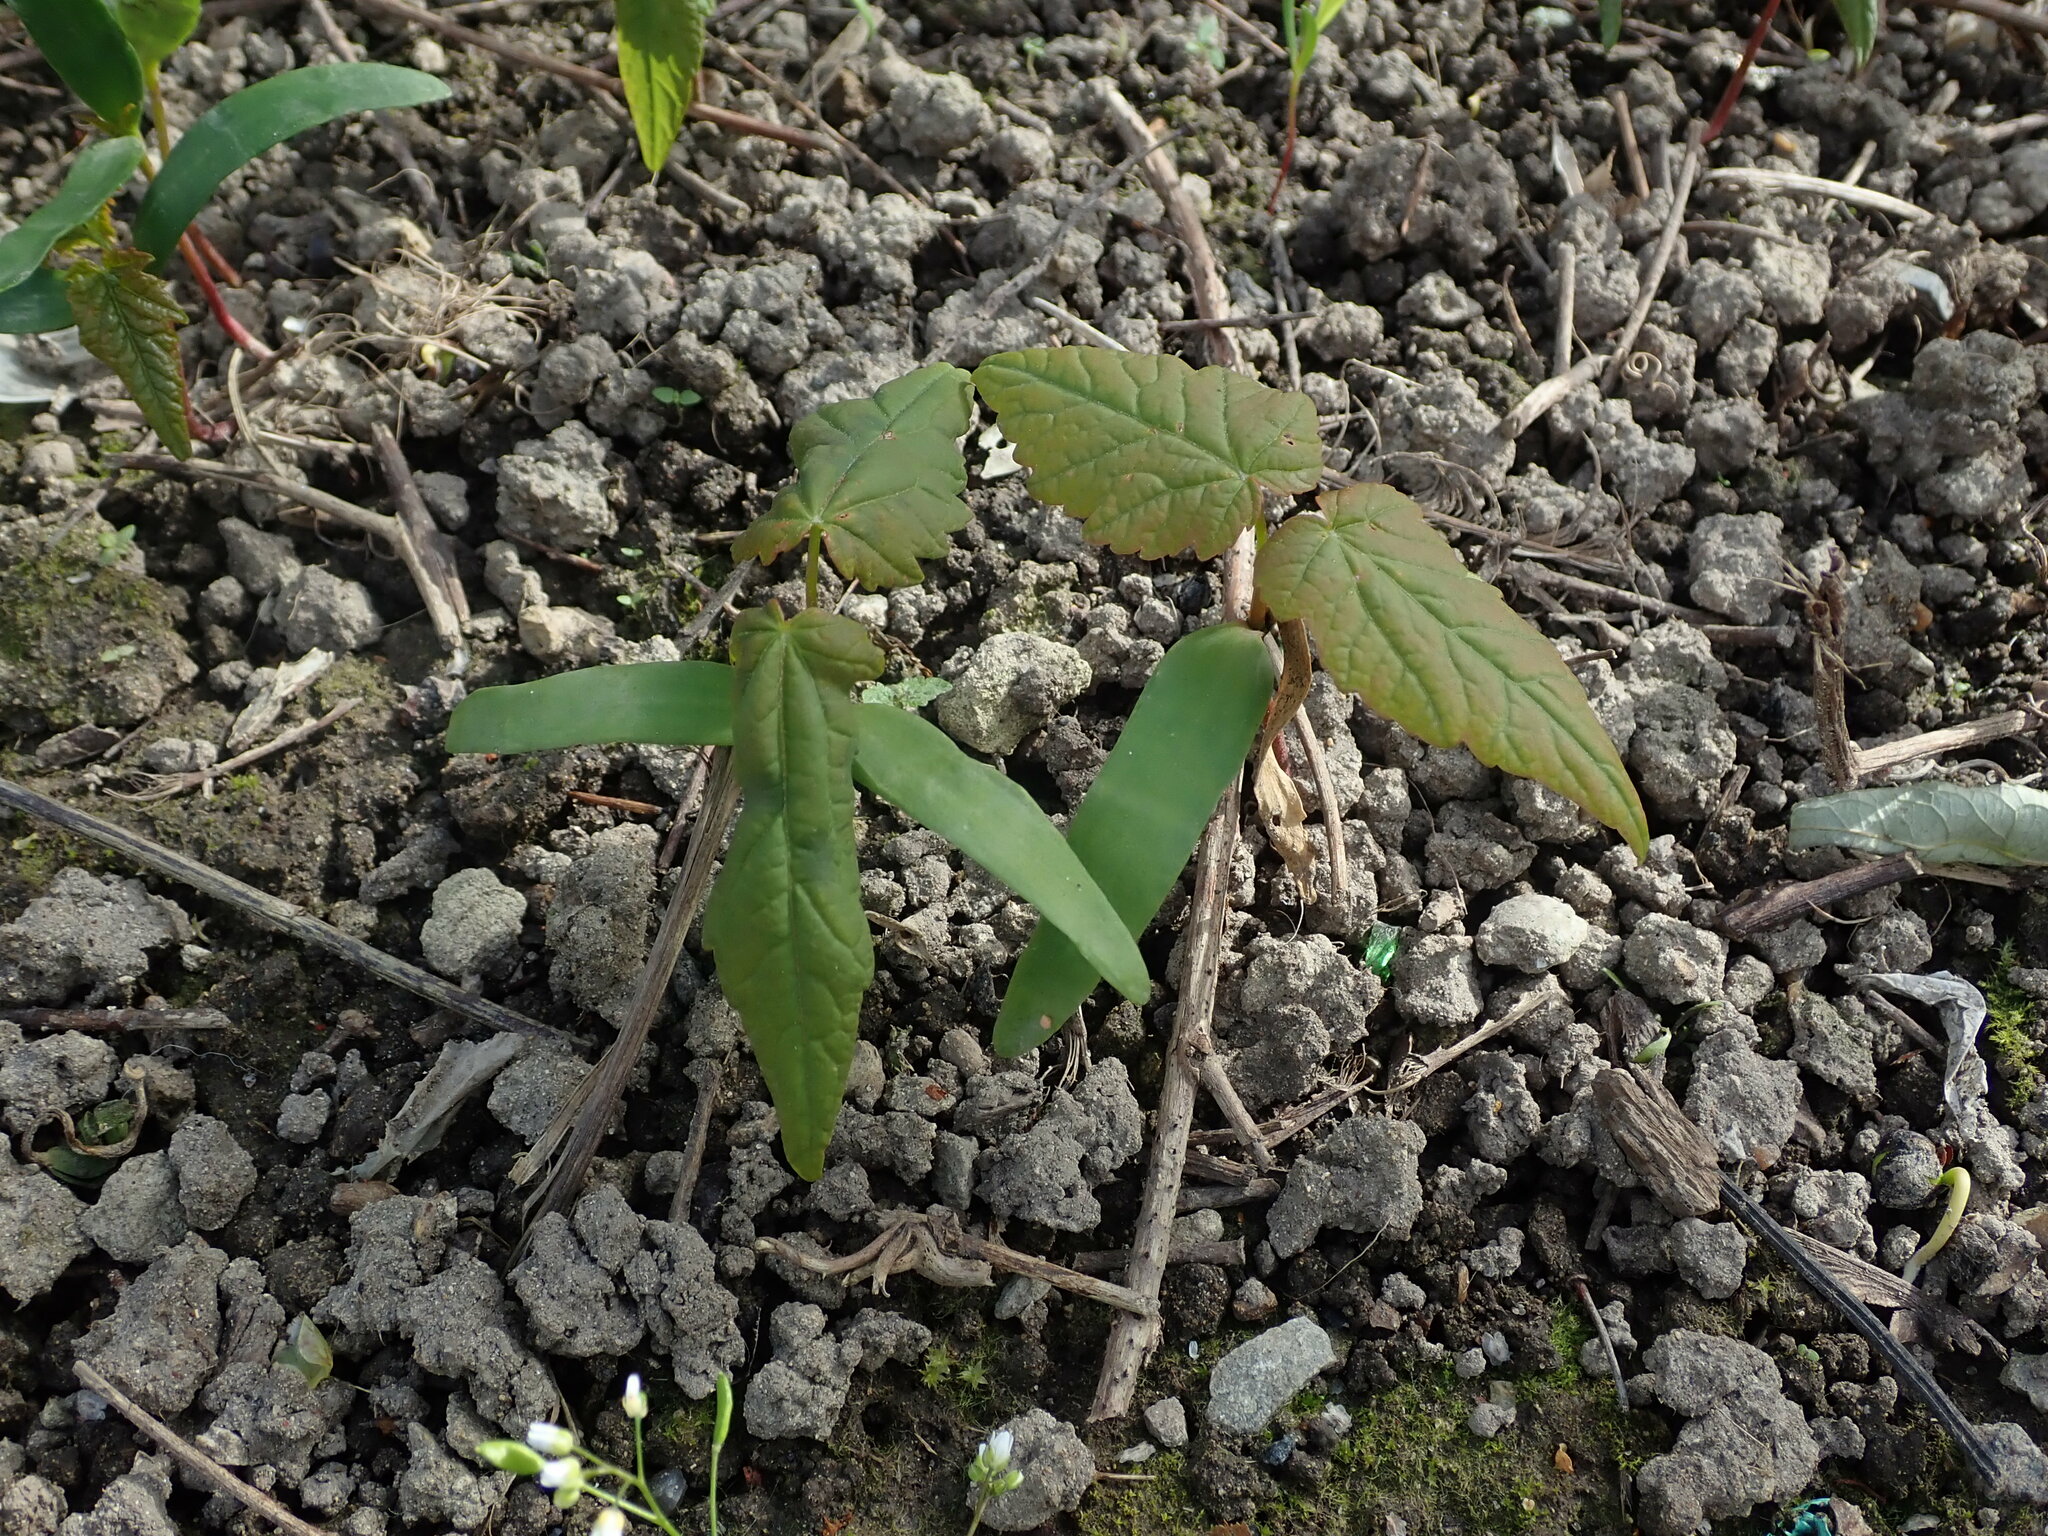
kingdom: Plantae
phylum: Tracheophyta
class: Magnoliopsida
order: Sapindales
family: Sapindaceae
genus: Acer
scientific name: Acer pseudoplatanus
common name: Sycamore
